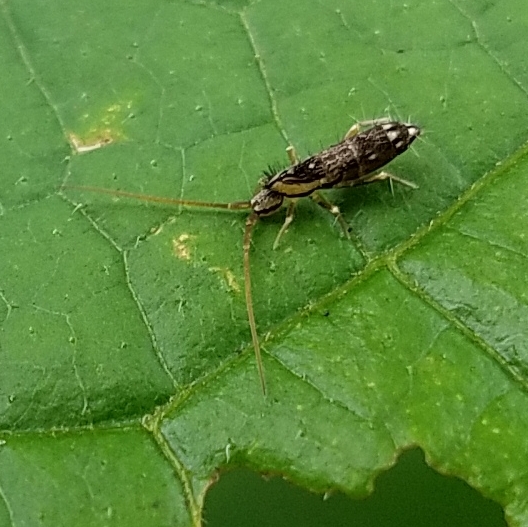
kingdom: Animalia
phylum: Arthropoda
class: Collembola
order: Entomobryomorpha
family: Tomoceridae
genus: Pogonognathellus
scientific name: Pogonognathellus elongatus
